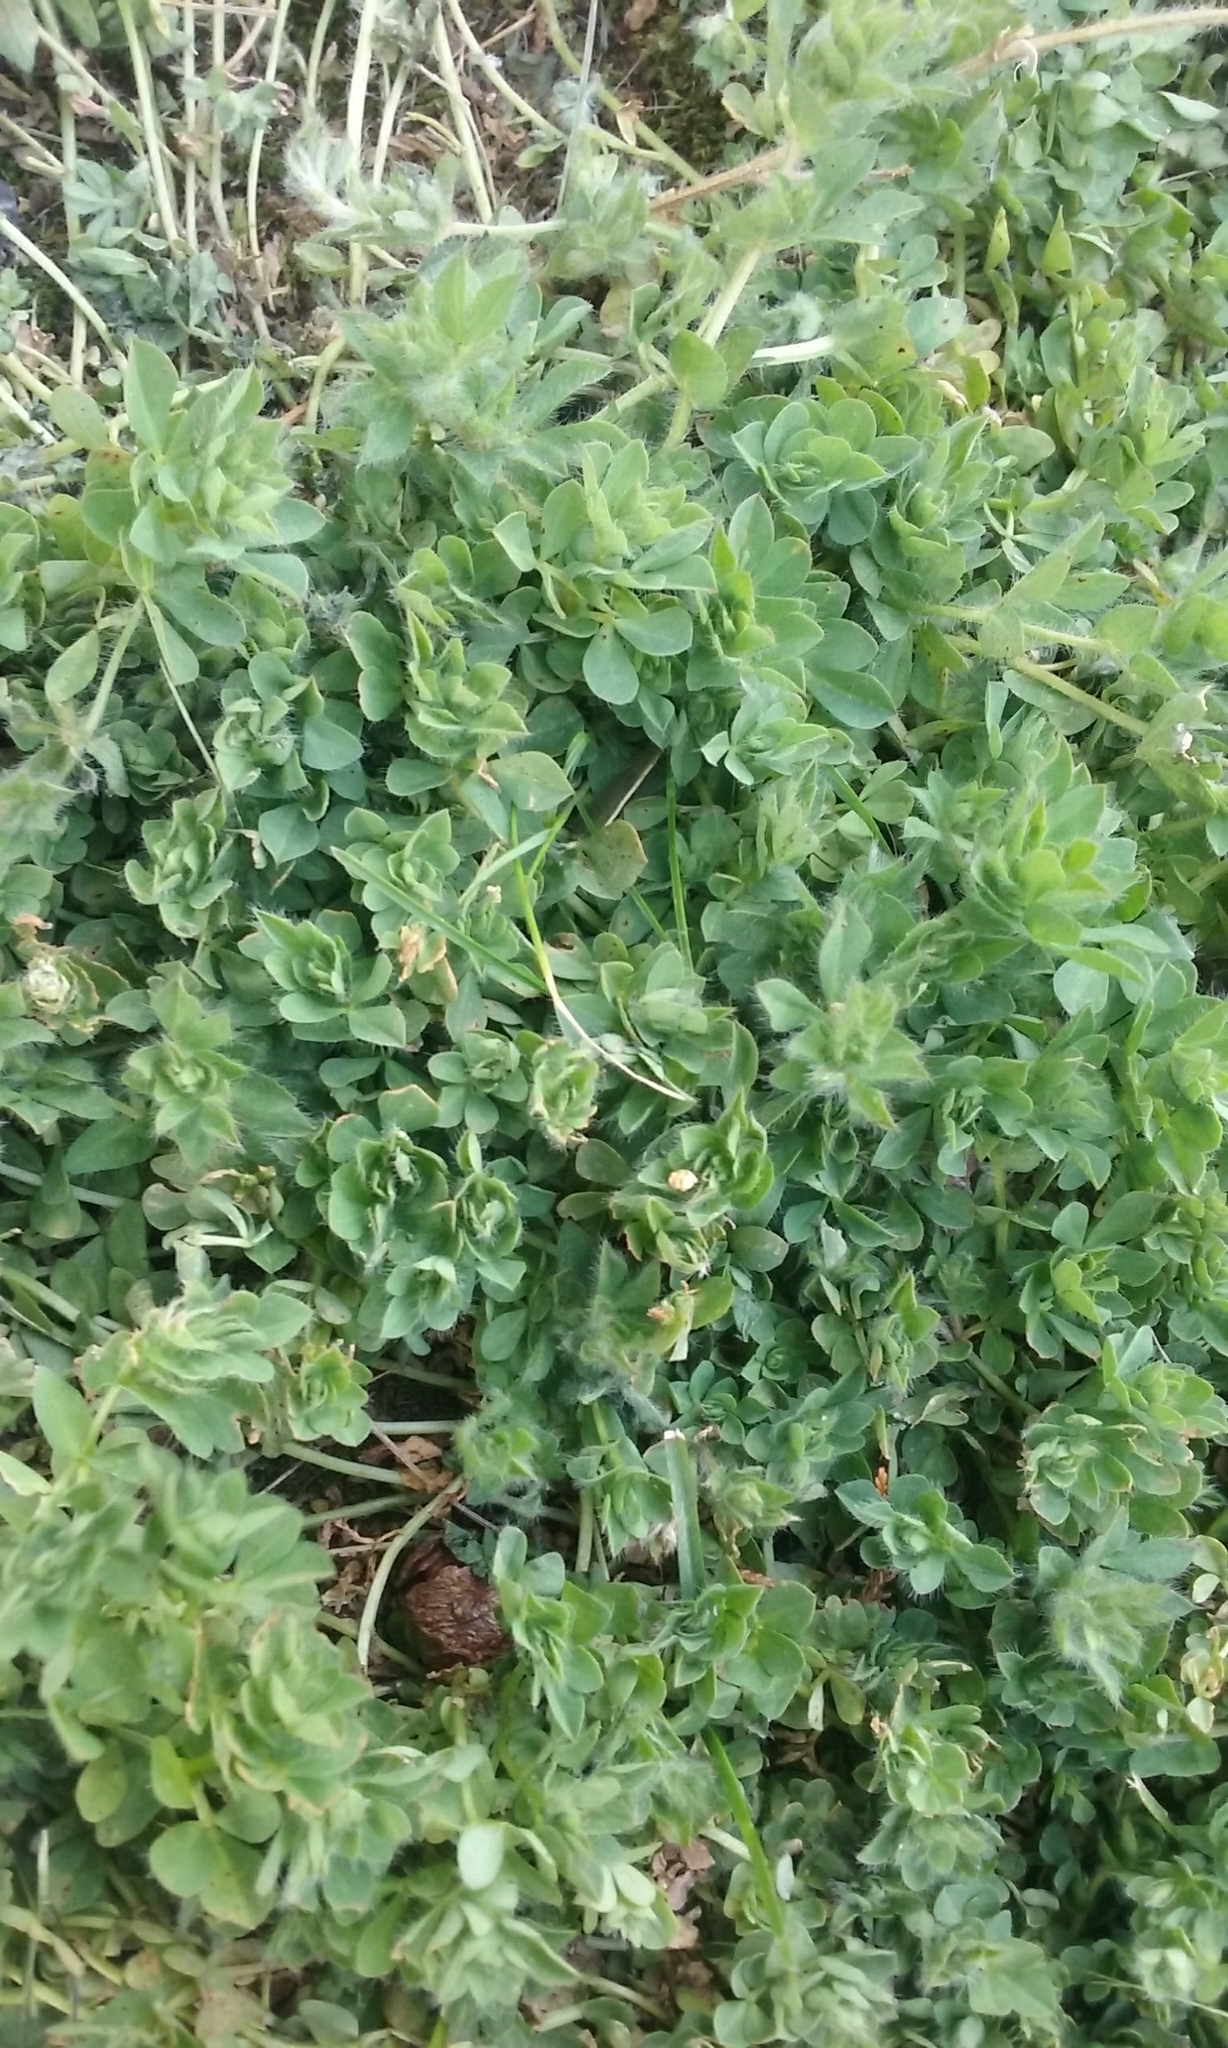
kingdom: Plantae
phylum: Tracheophyta
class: Magnoliopsida
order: Fabales
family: Fabaceae
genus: Lotus
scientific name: Lotus pedunculatus
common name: Greater birdsfoot-trefoil
